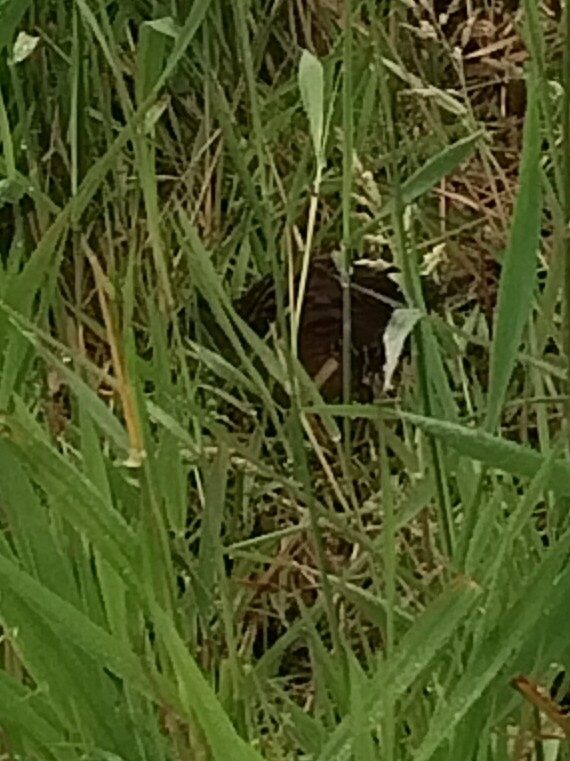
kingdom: Animalia
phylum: Chordata
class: Aves
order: Gruiformes
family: Rallidae
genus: Rallus
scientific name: Rallus limicola
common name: Virginia rail
